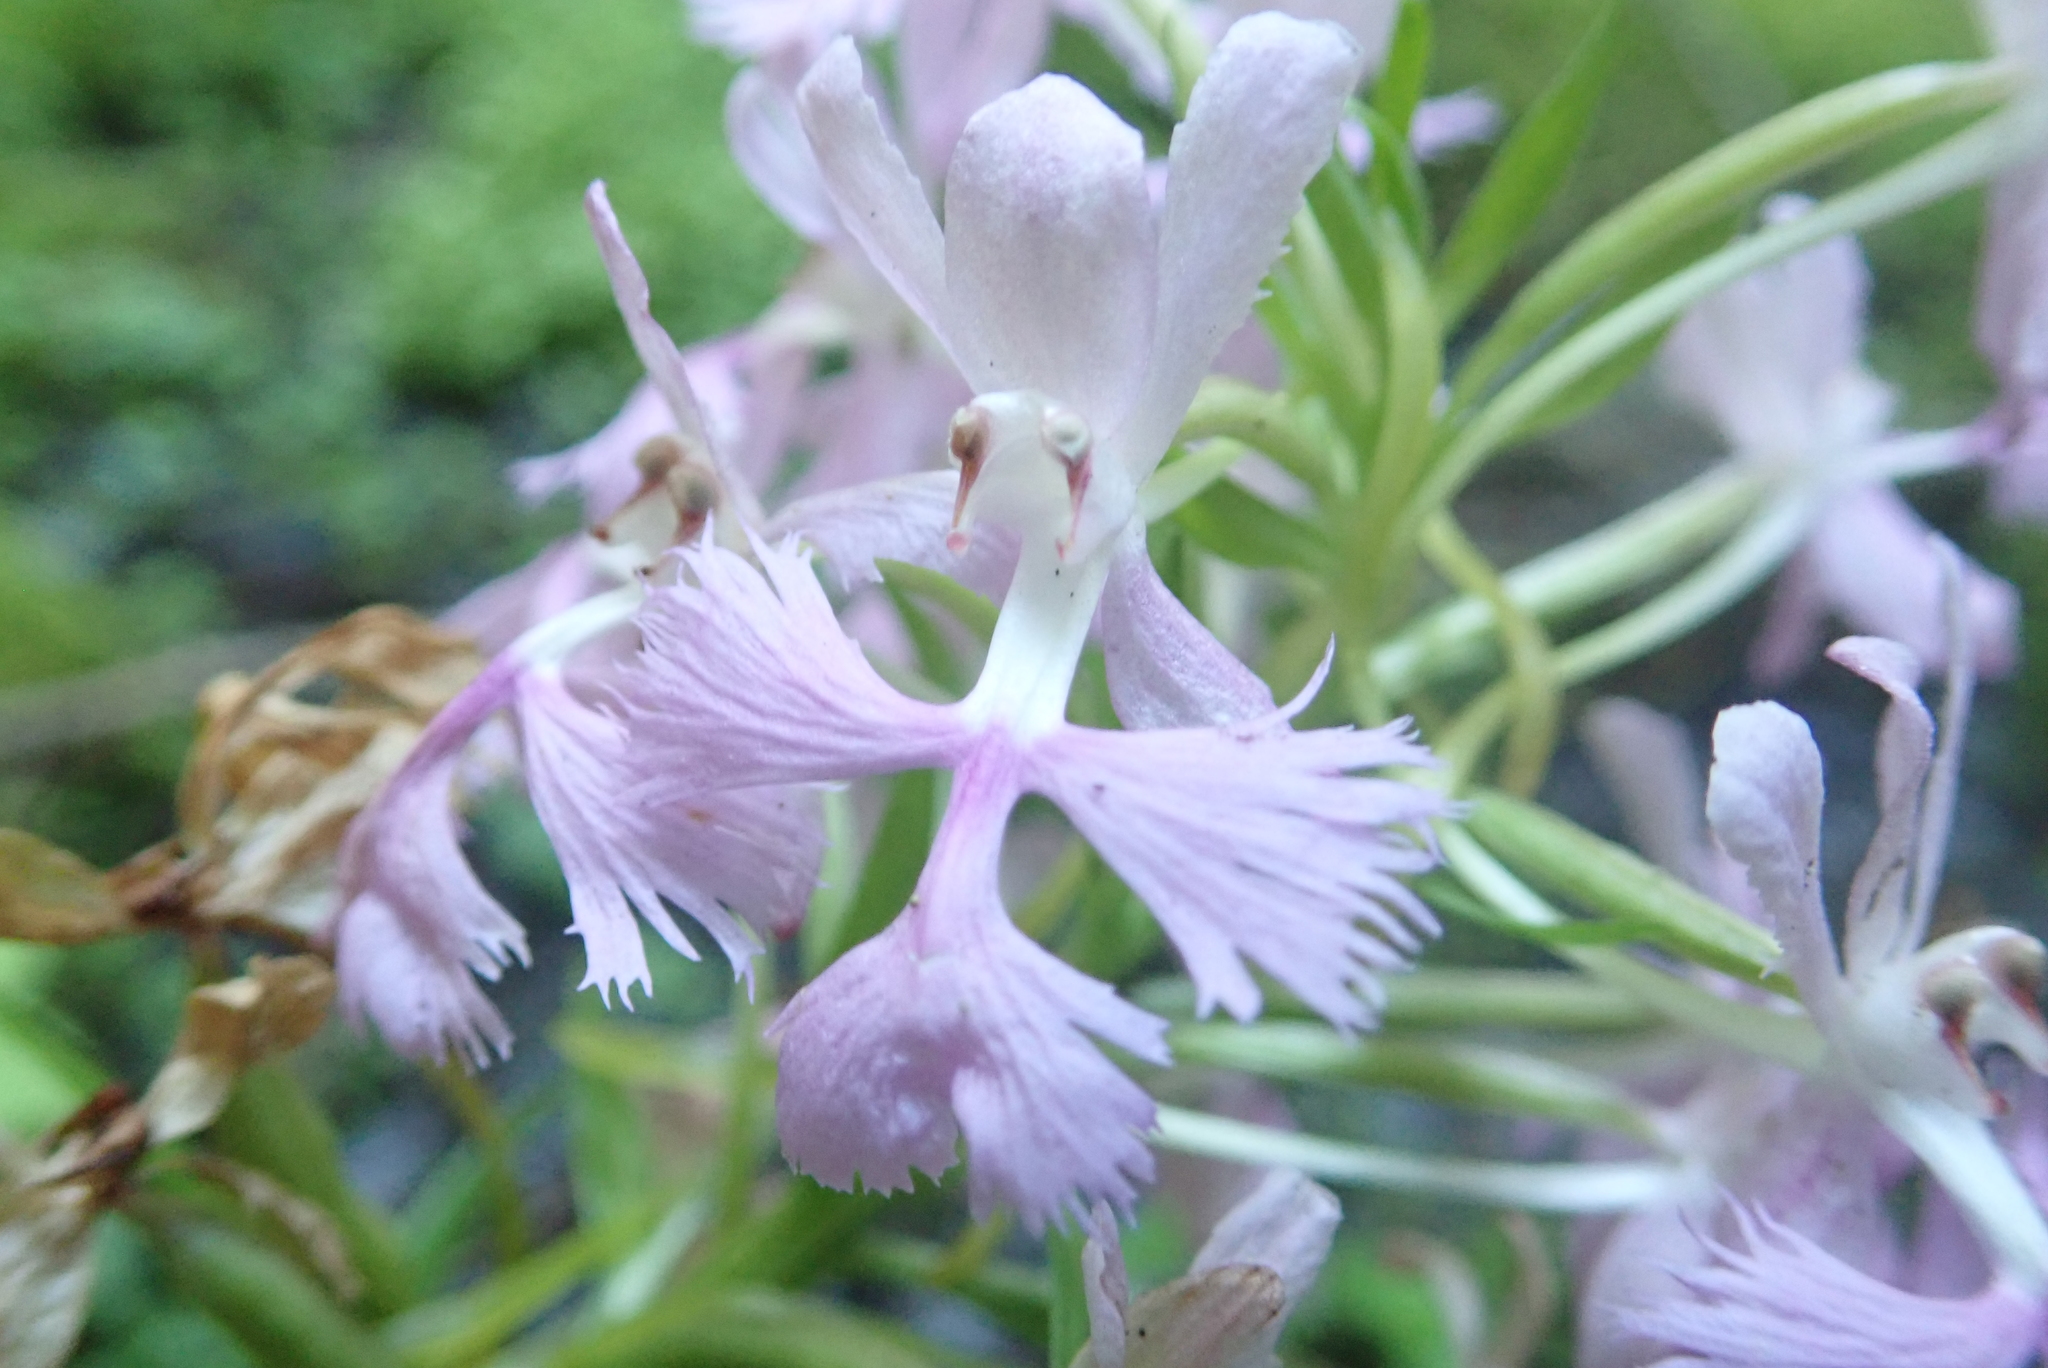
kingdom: Plantae
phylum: Tracheophyta
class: Liliopsida
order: Asparagales
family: Orchidaceae
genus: Platanthera
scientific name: Platanthera grandiflora
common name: Greater purple fringed orchid
